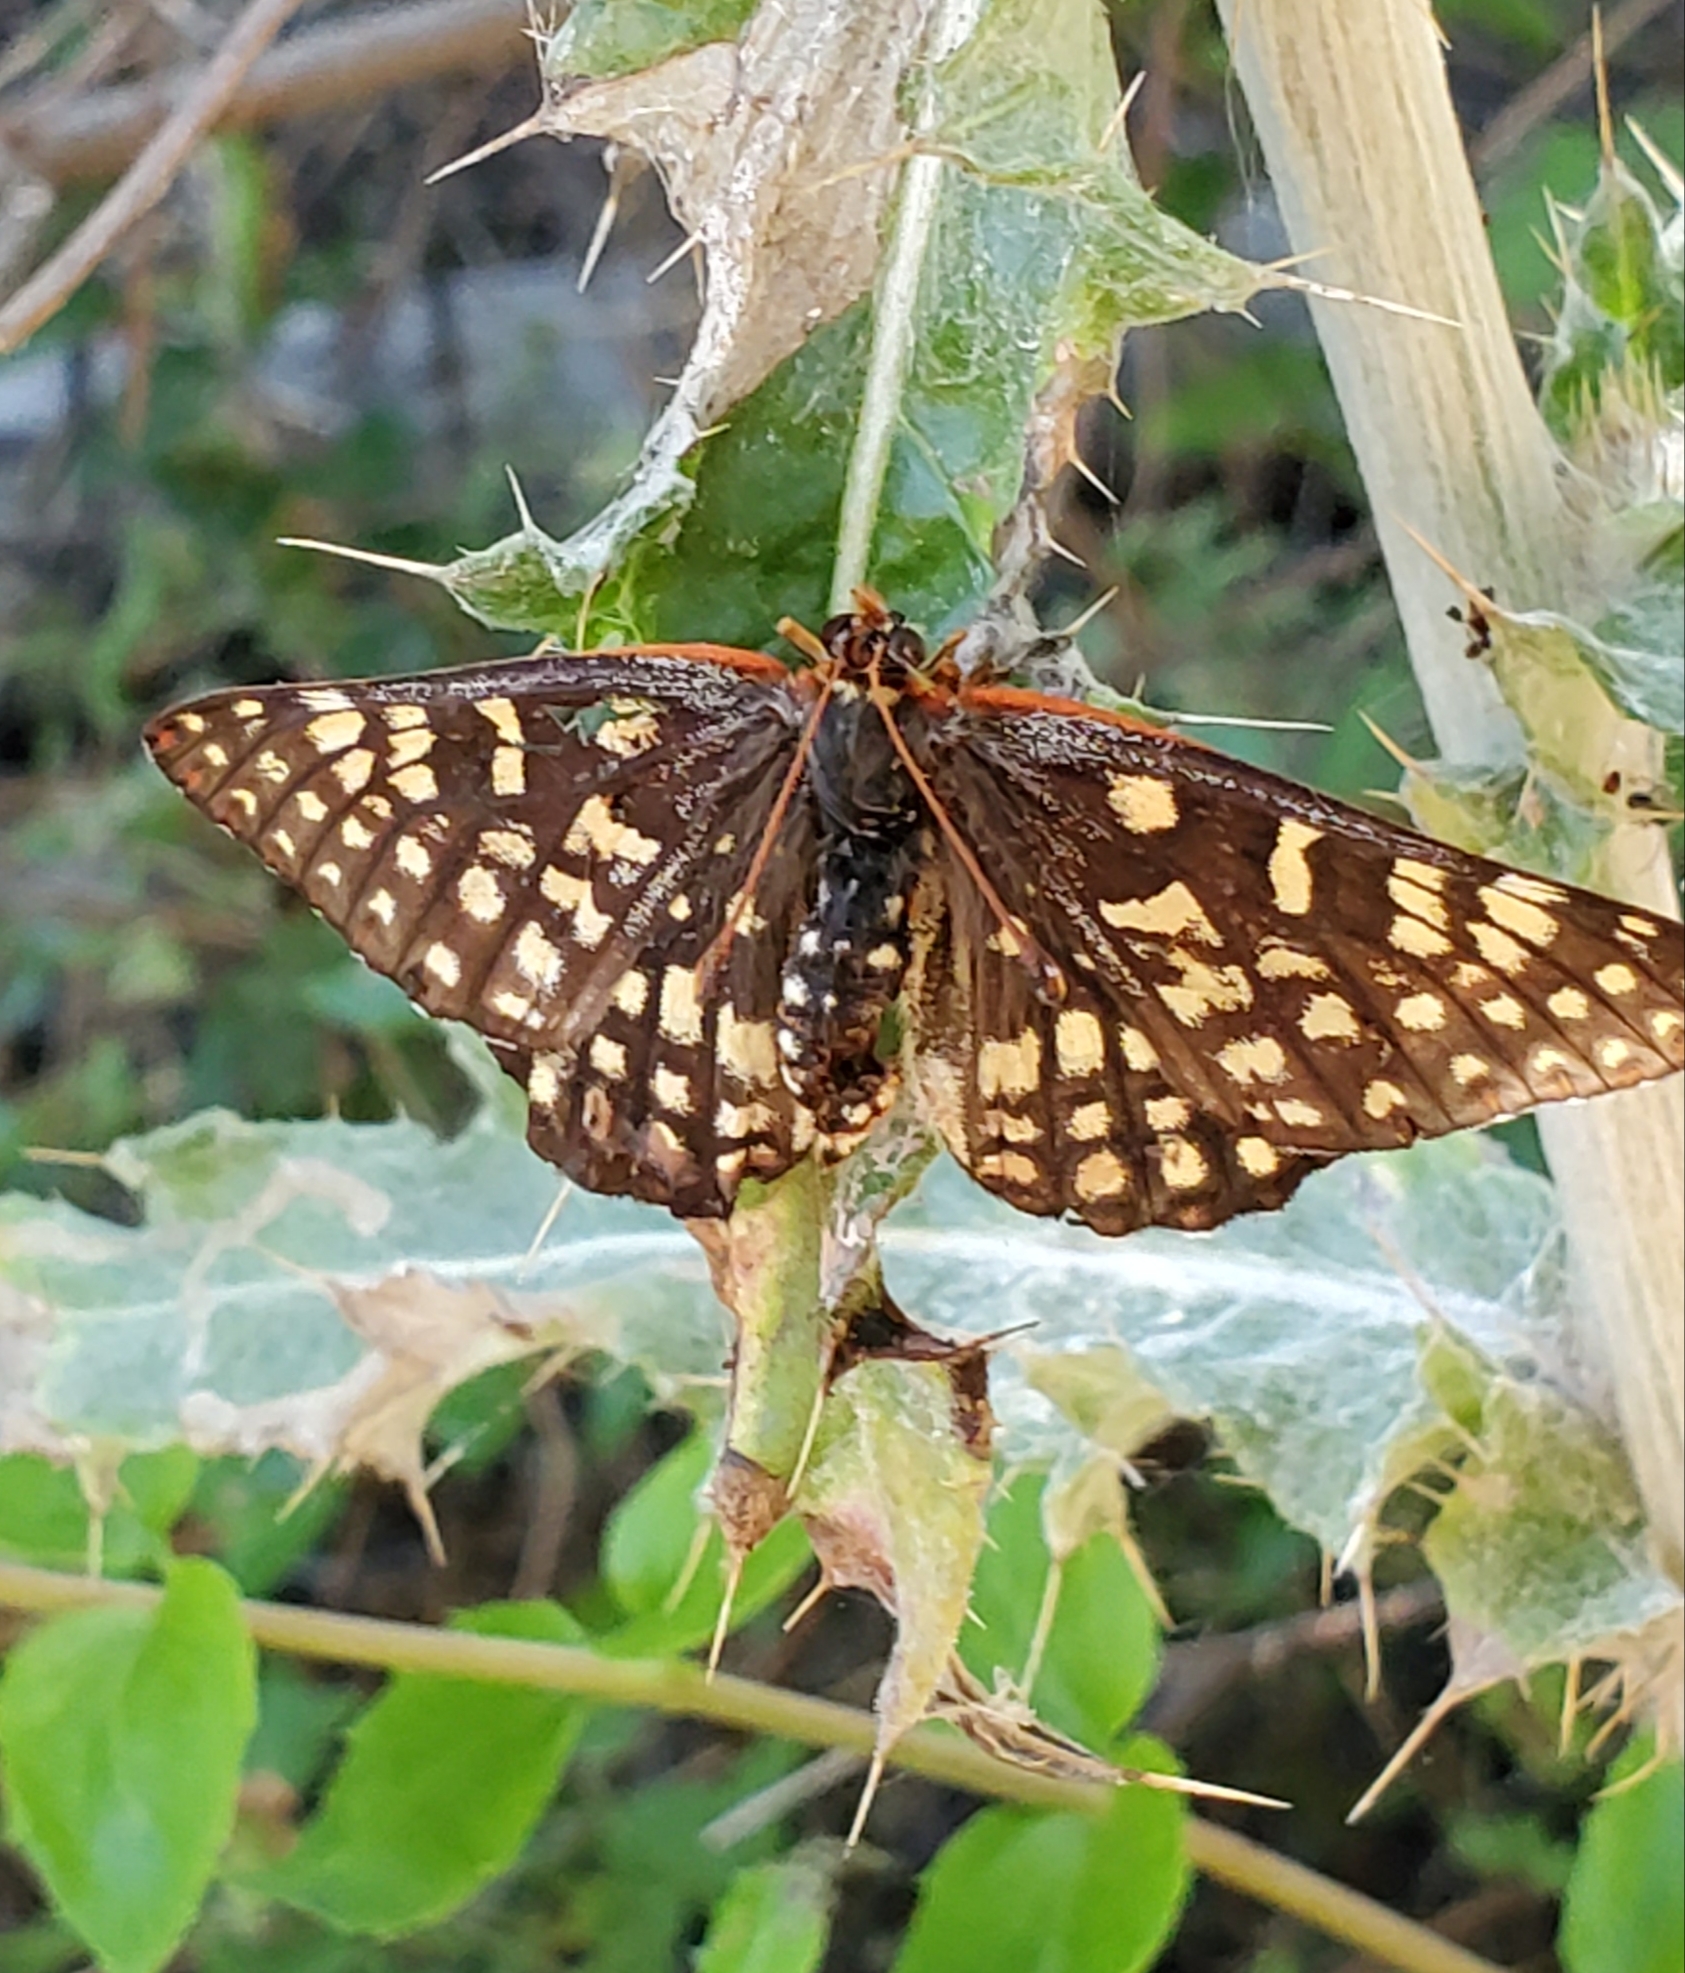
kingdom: Animalia
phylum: Arthropoda
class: Insecta
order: Lepidoptera
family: Nymphalidae
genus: Occidryas
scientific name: Occidryas chalcedona
